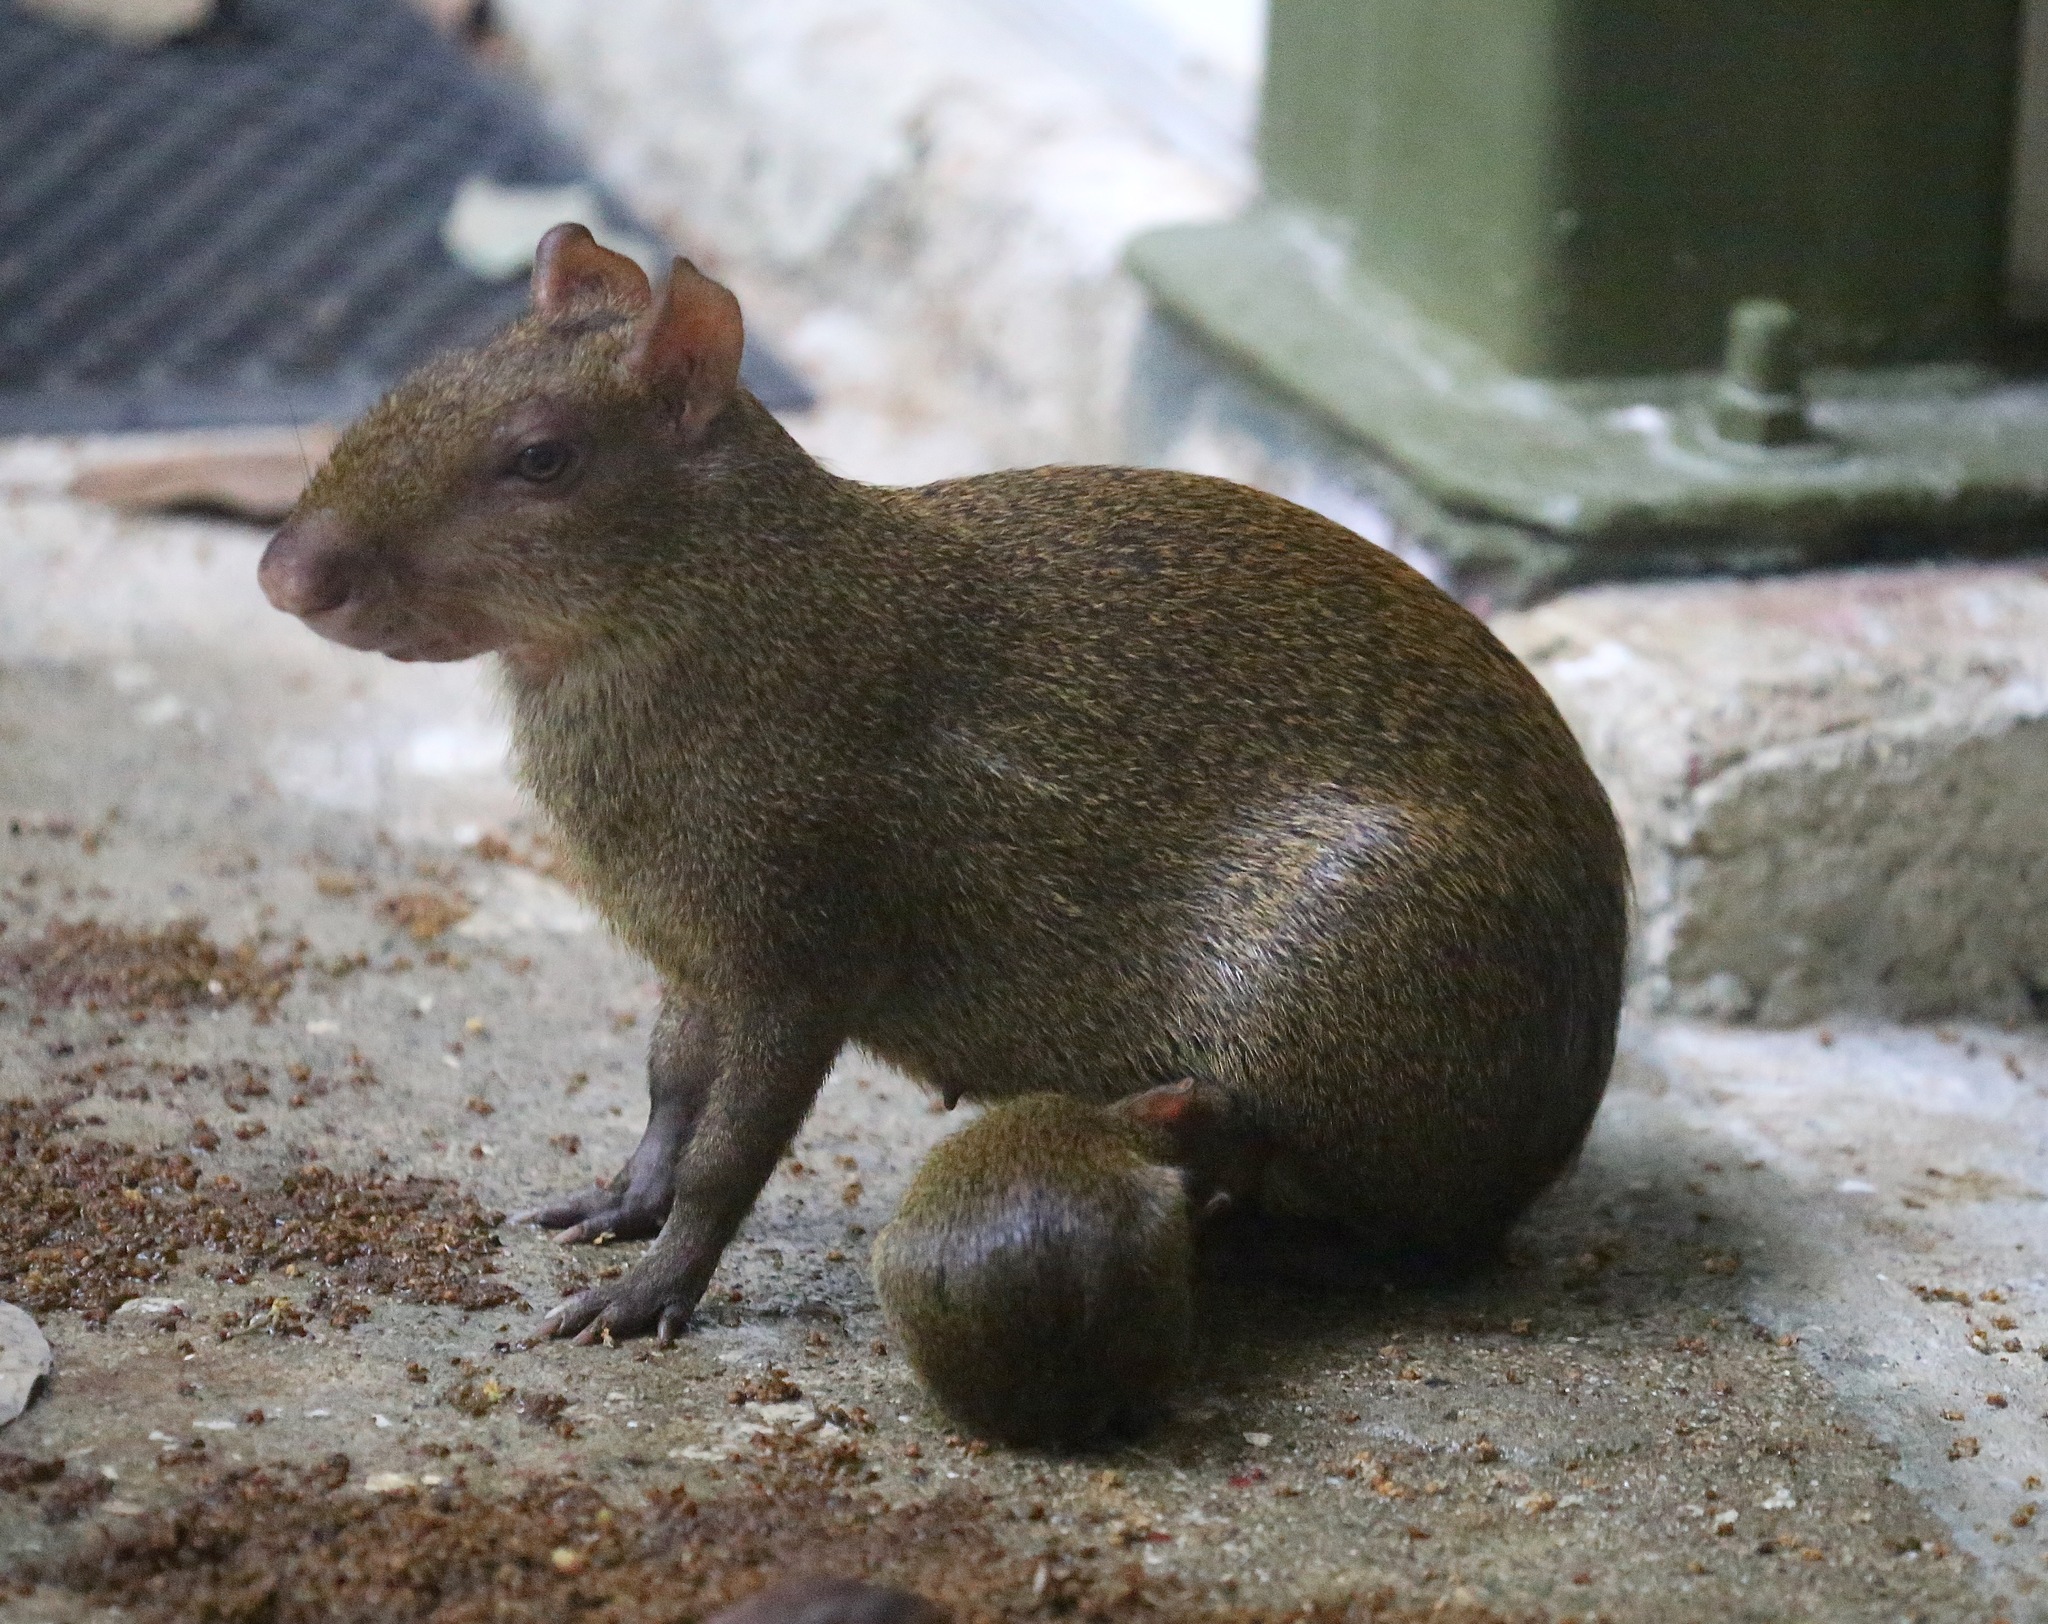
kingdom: Animalia
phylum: Chordata
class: Mammalia
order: Rodentia
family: Dasyproctidae
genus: Dasyprocta
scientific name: Dasyprocta punctata
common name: Central american agouti
